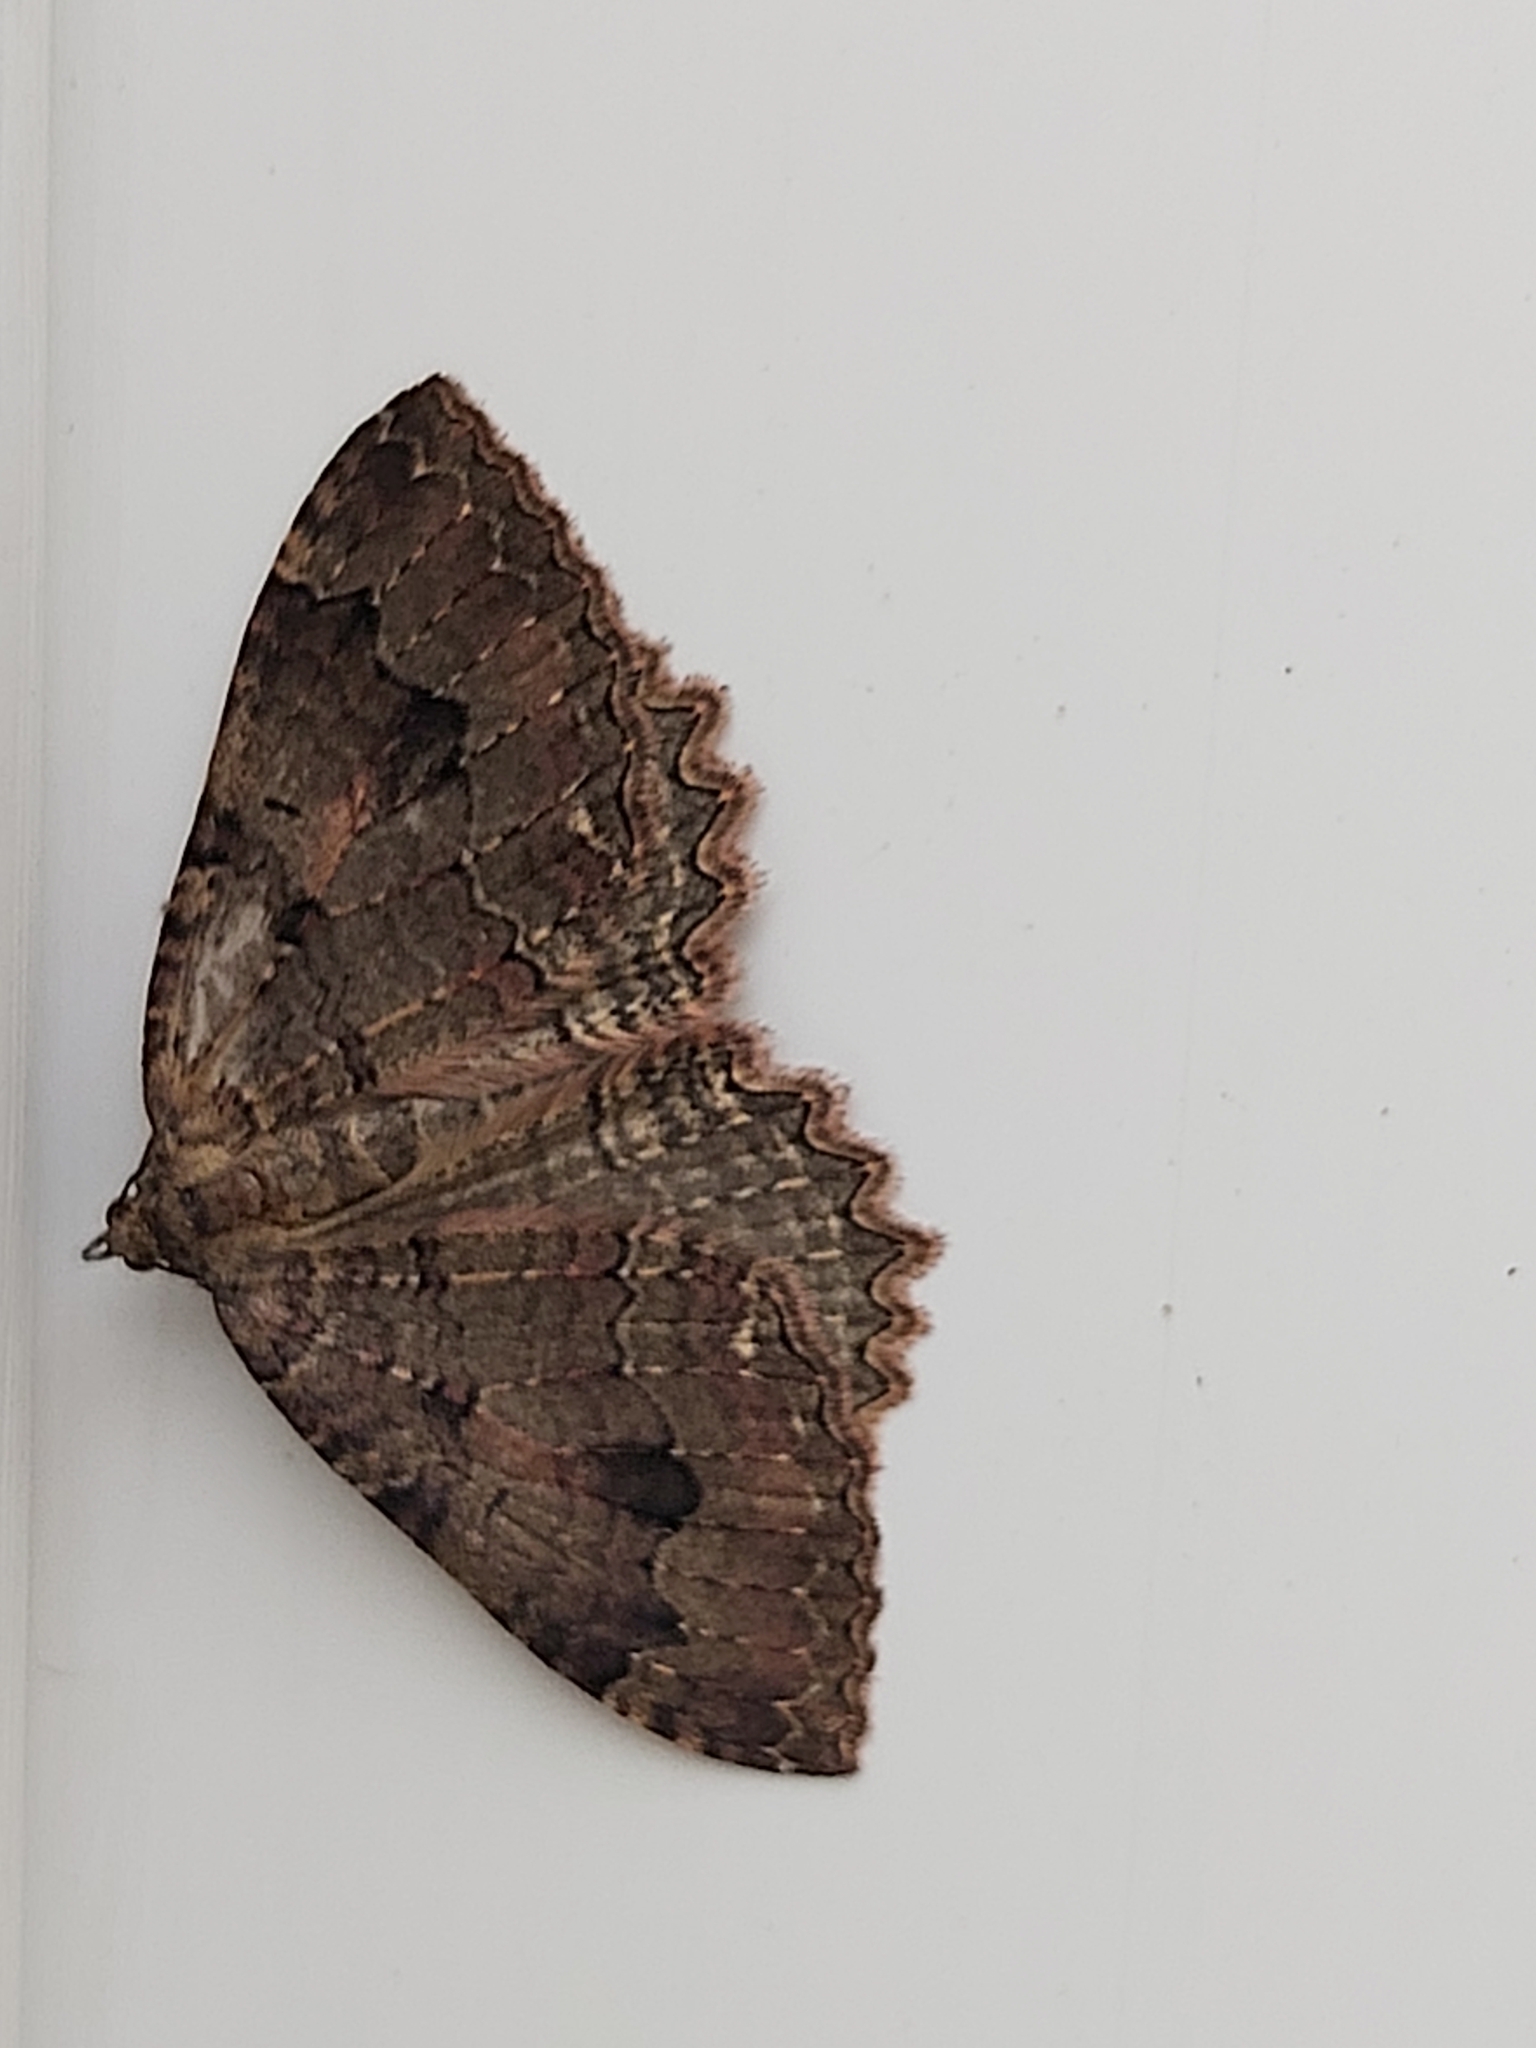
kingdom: Animalia
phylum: Arthropoda
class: Insecta
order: Lepidoptera
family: Geometridae
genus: Triphosa
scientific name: Triphosa dubitata
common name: Tissue
